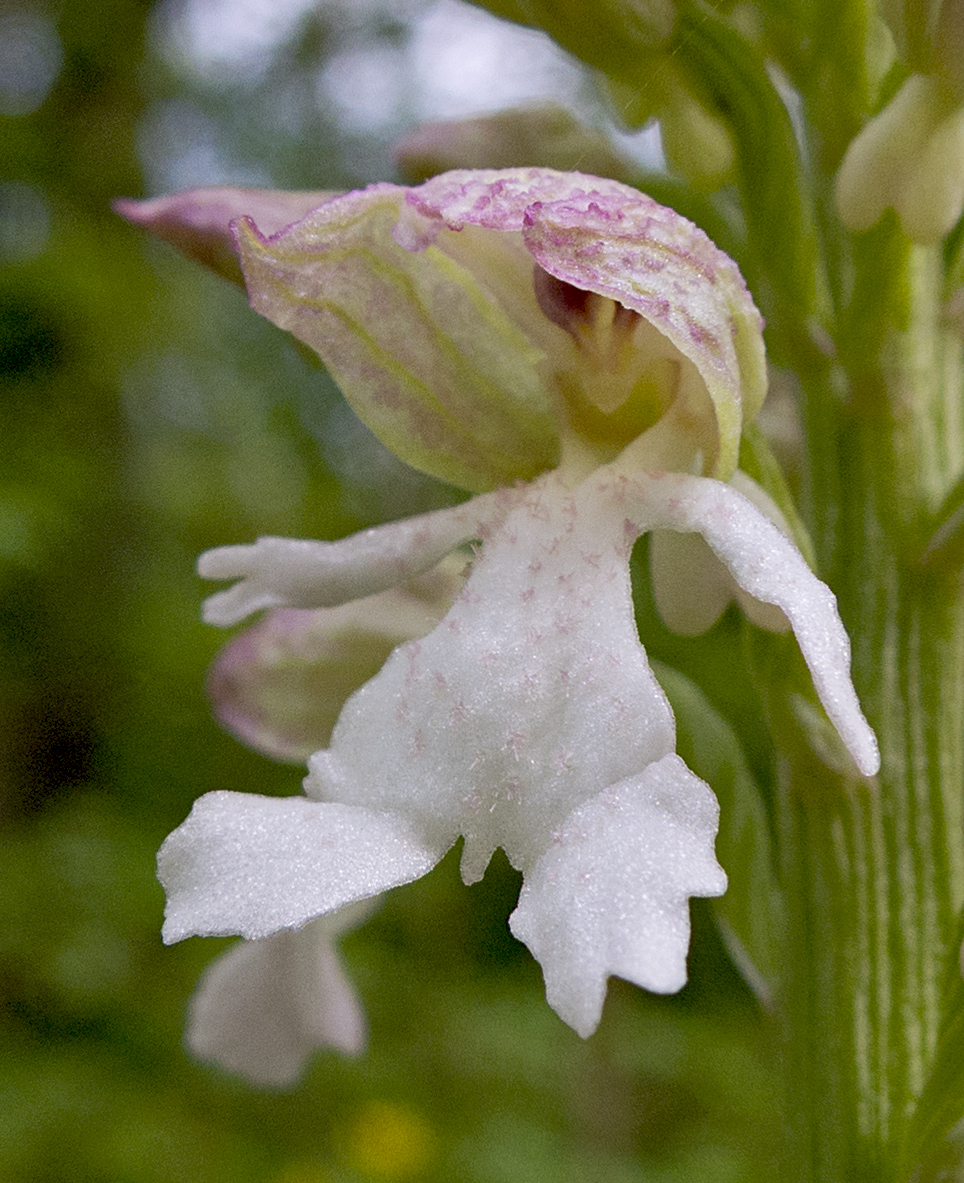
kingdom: Plantae
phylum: Tracheophyta
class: Liliopsida
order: Asparagales
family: Orchidaceae
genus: Orchis
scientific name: Orchis purpurea
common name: Lady orchid
